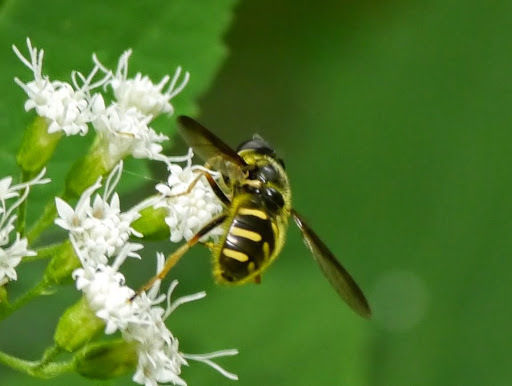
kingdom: Animalia
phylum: Arthropoda
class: Insecta
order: Diptera
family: Syrphidae
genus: Sericomyia
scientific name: Sericomyia chrysotoxoides
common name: Oblique-banded pond fly
